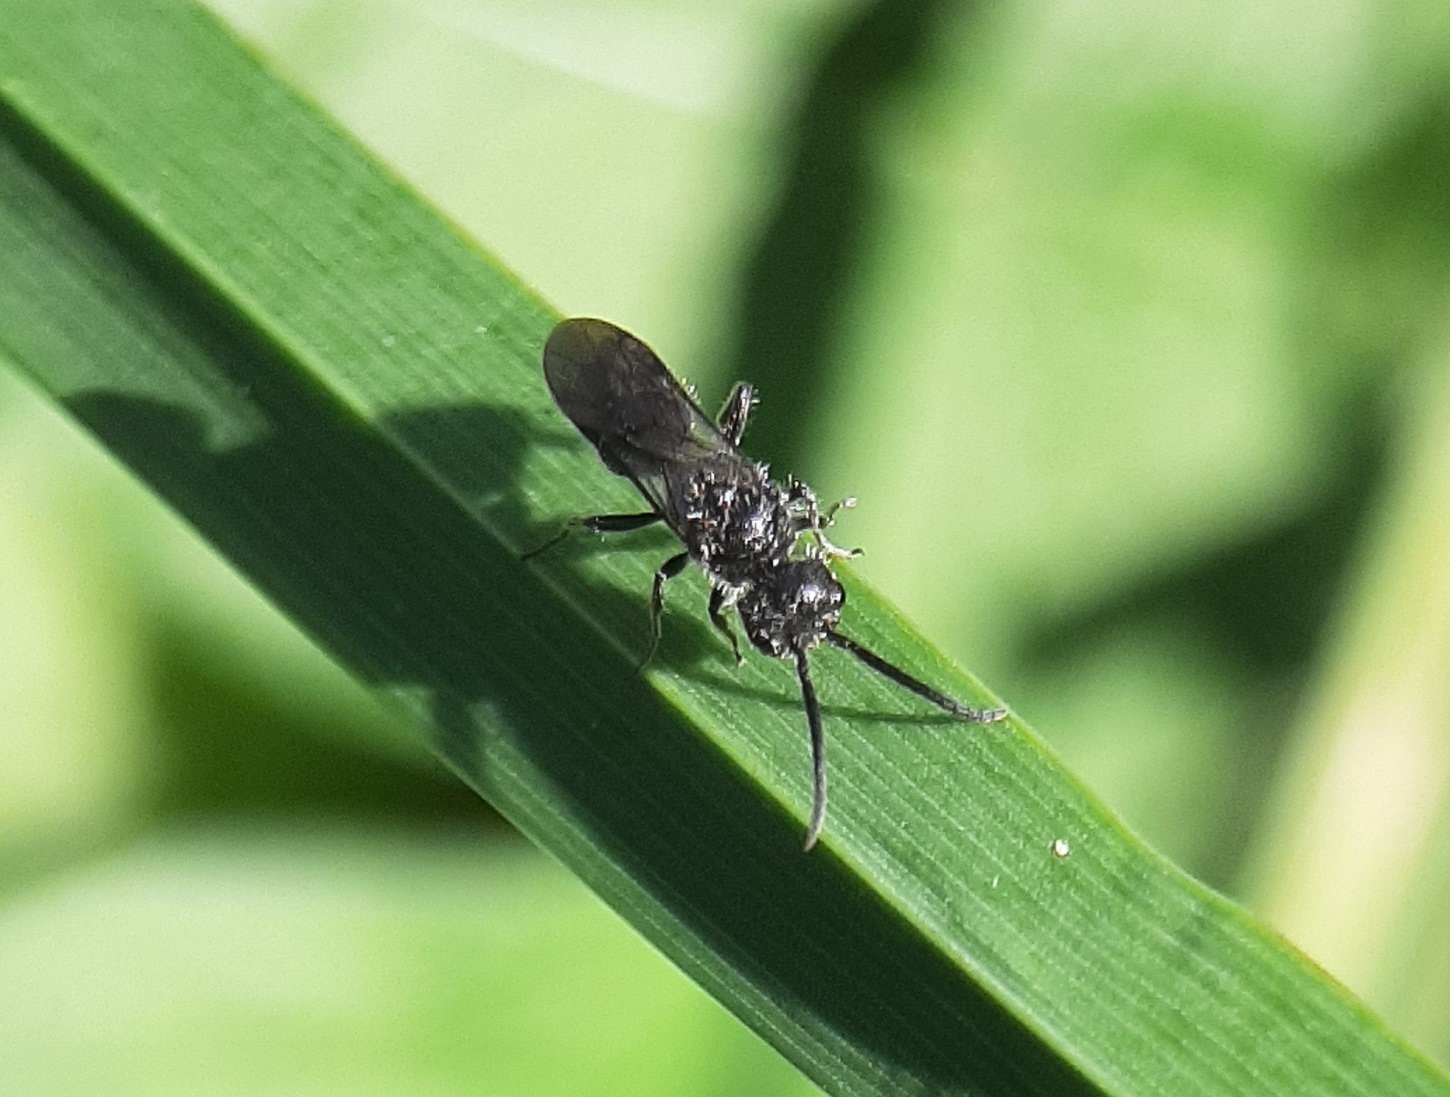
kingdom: Animalia
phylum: Arthropoda
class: Insecta
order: Hymenoptera
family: Mutillidae
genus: Pseudomethoca
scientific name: Pseudomethoca
